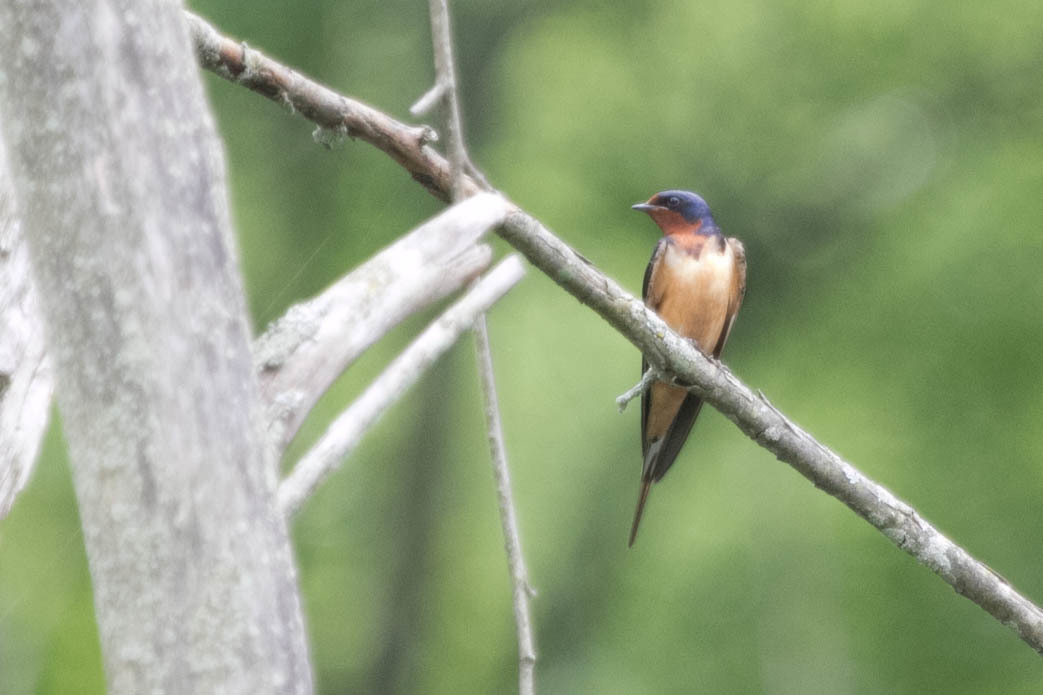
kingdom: Animalia
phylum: Chordata
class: Aves
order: Passeriformes
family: Hirundinidae
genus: Hirundo
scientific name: Hirundo rustica
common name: Barn swallow
